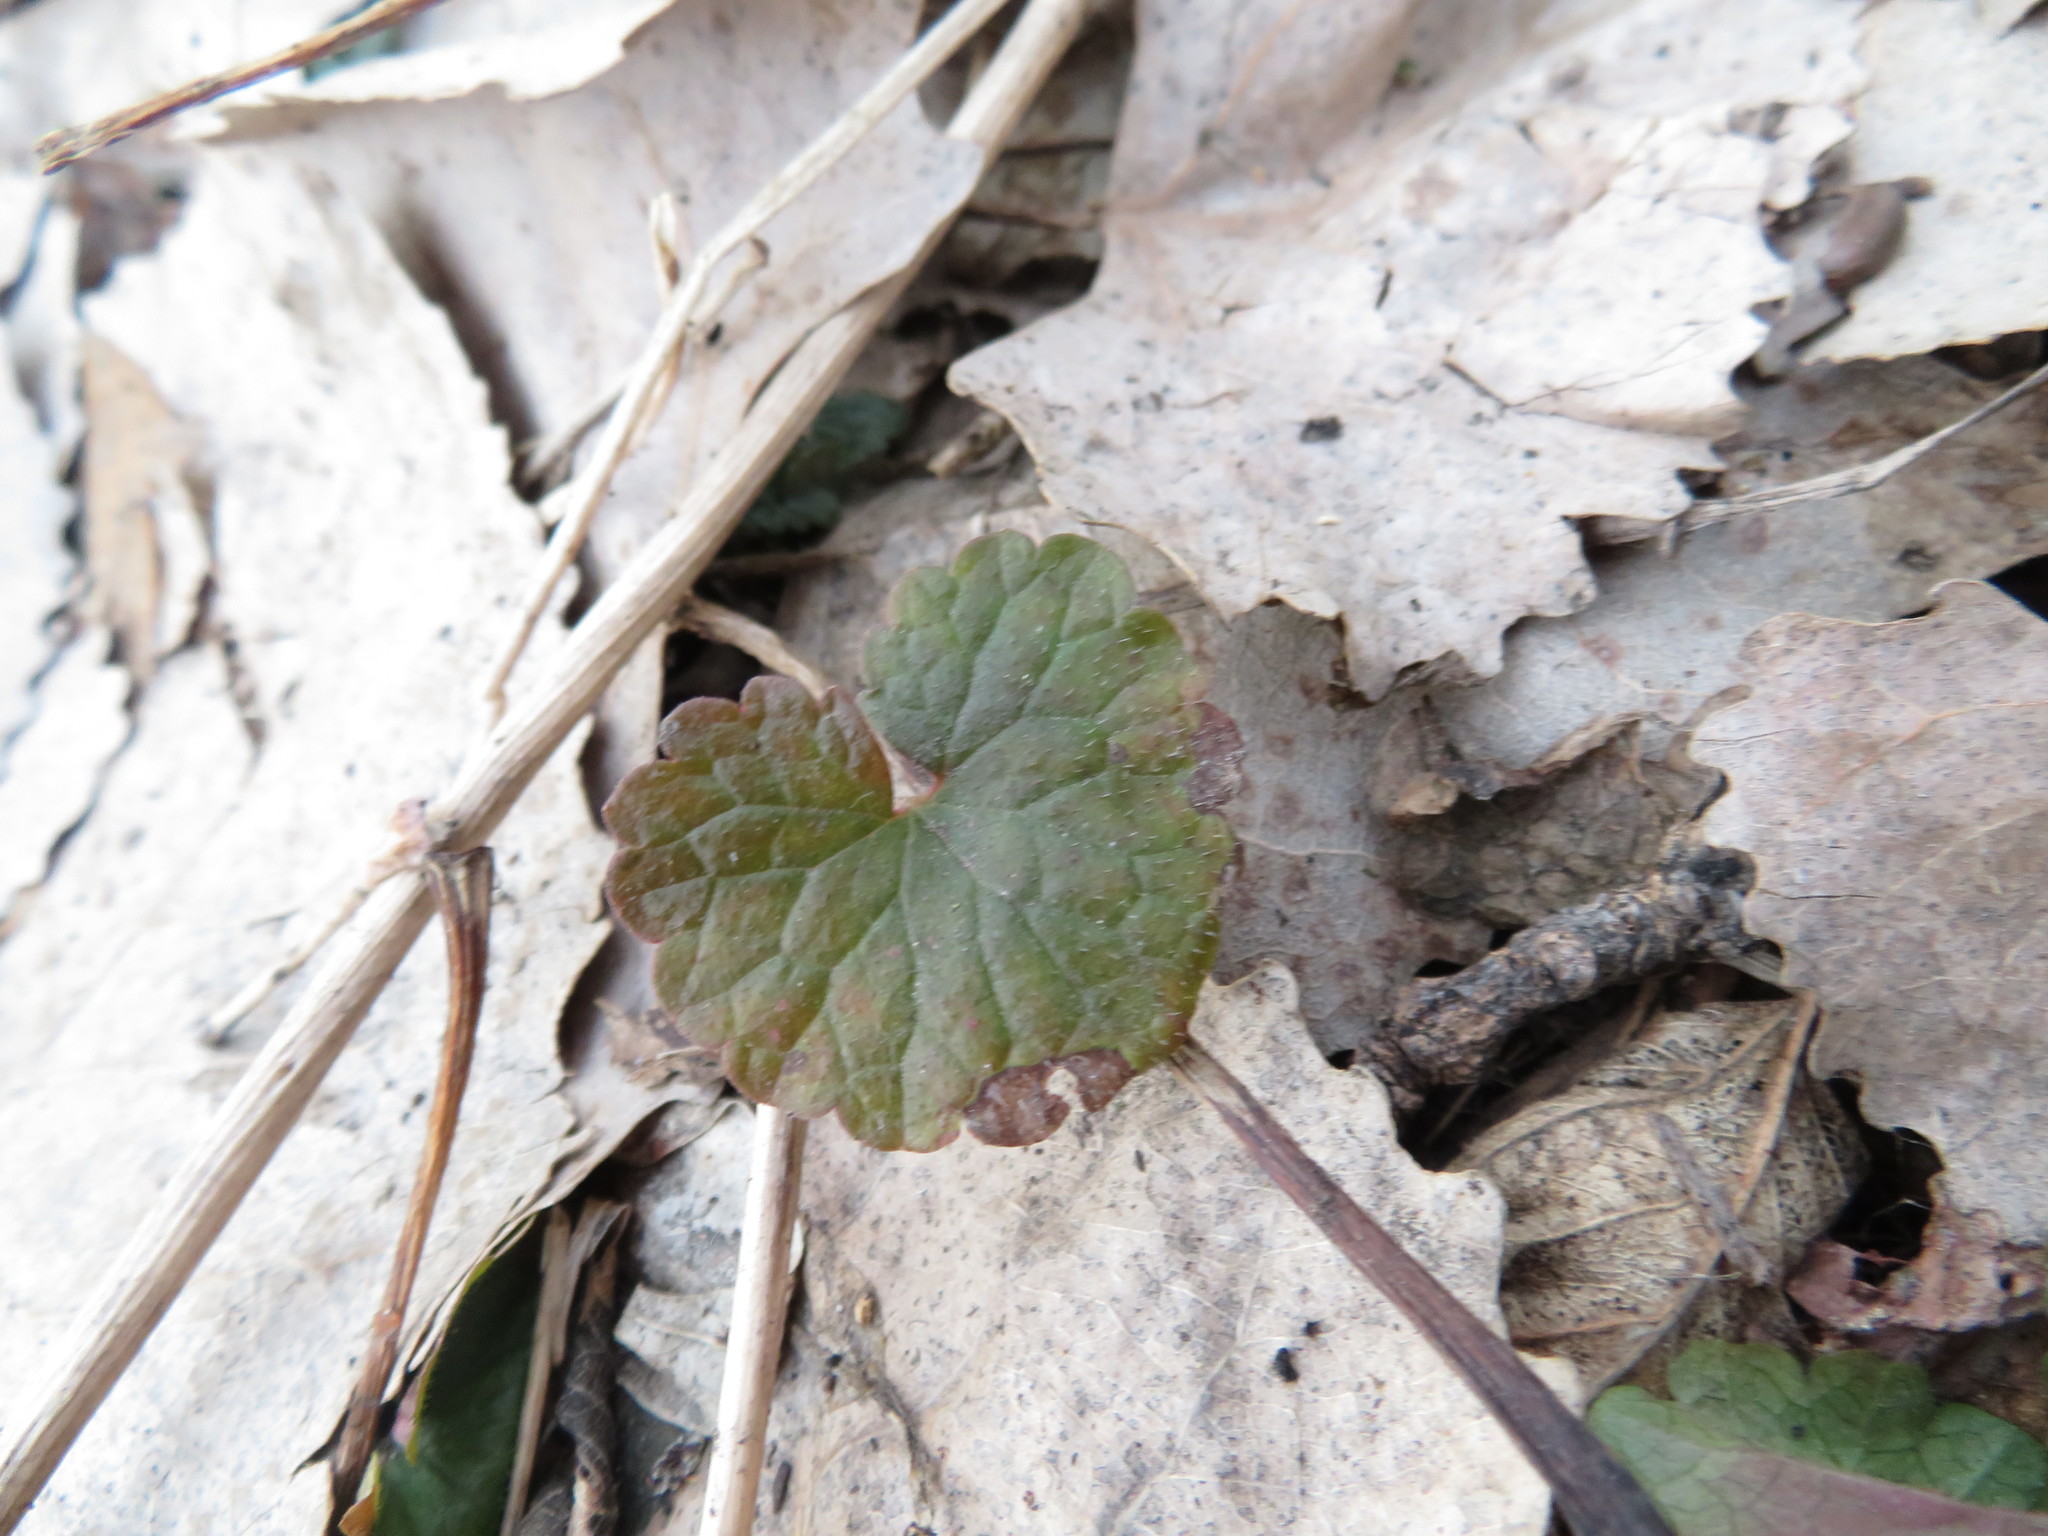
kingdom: Plantae
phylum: Tracheophyta
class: Magnoliopsida
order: Lamiales
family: Lamiaceae
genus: Glechoma
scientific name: Glechoma hederacea
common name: Ground ivy
